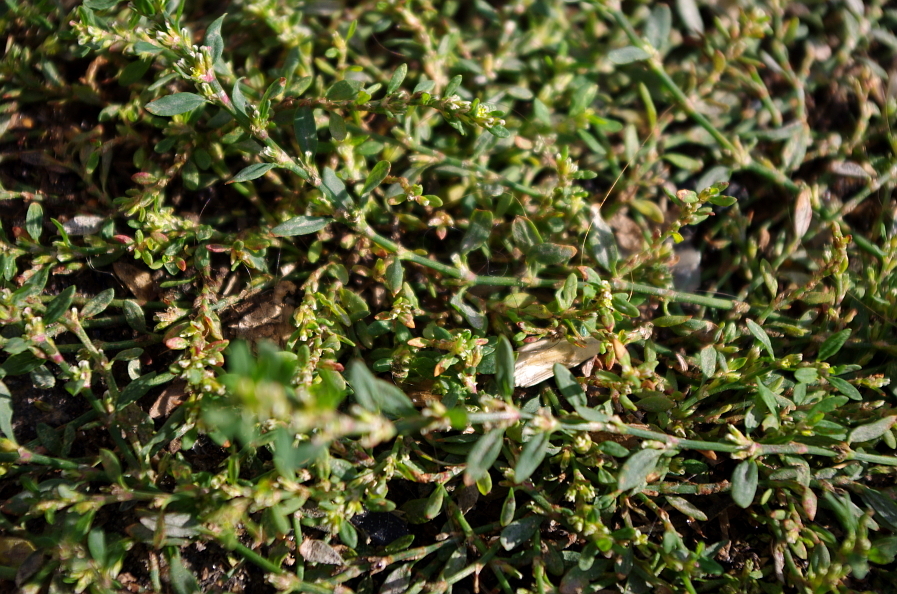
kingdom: Plantae
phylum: Tracheophyta
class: Magnoliopsida
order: Caryophyllales
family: Polygonaceae
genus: Polygonum
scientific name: Polygonum
